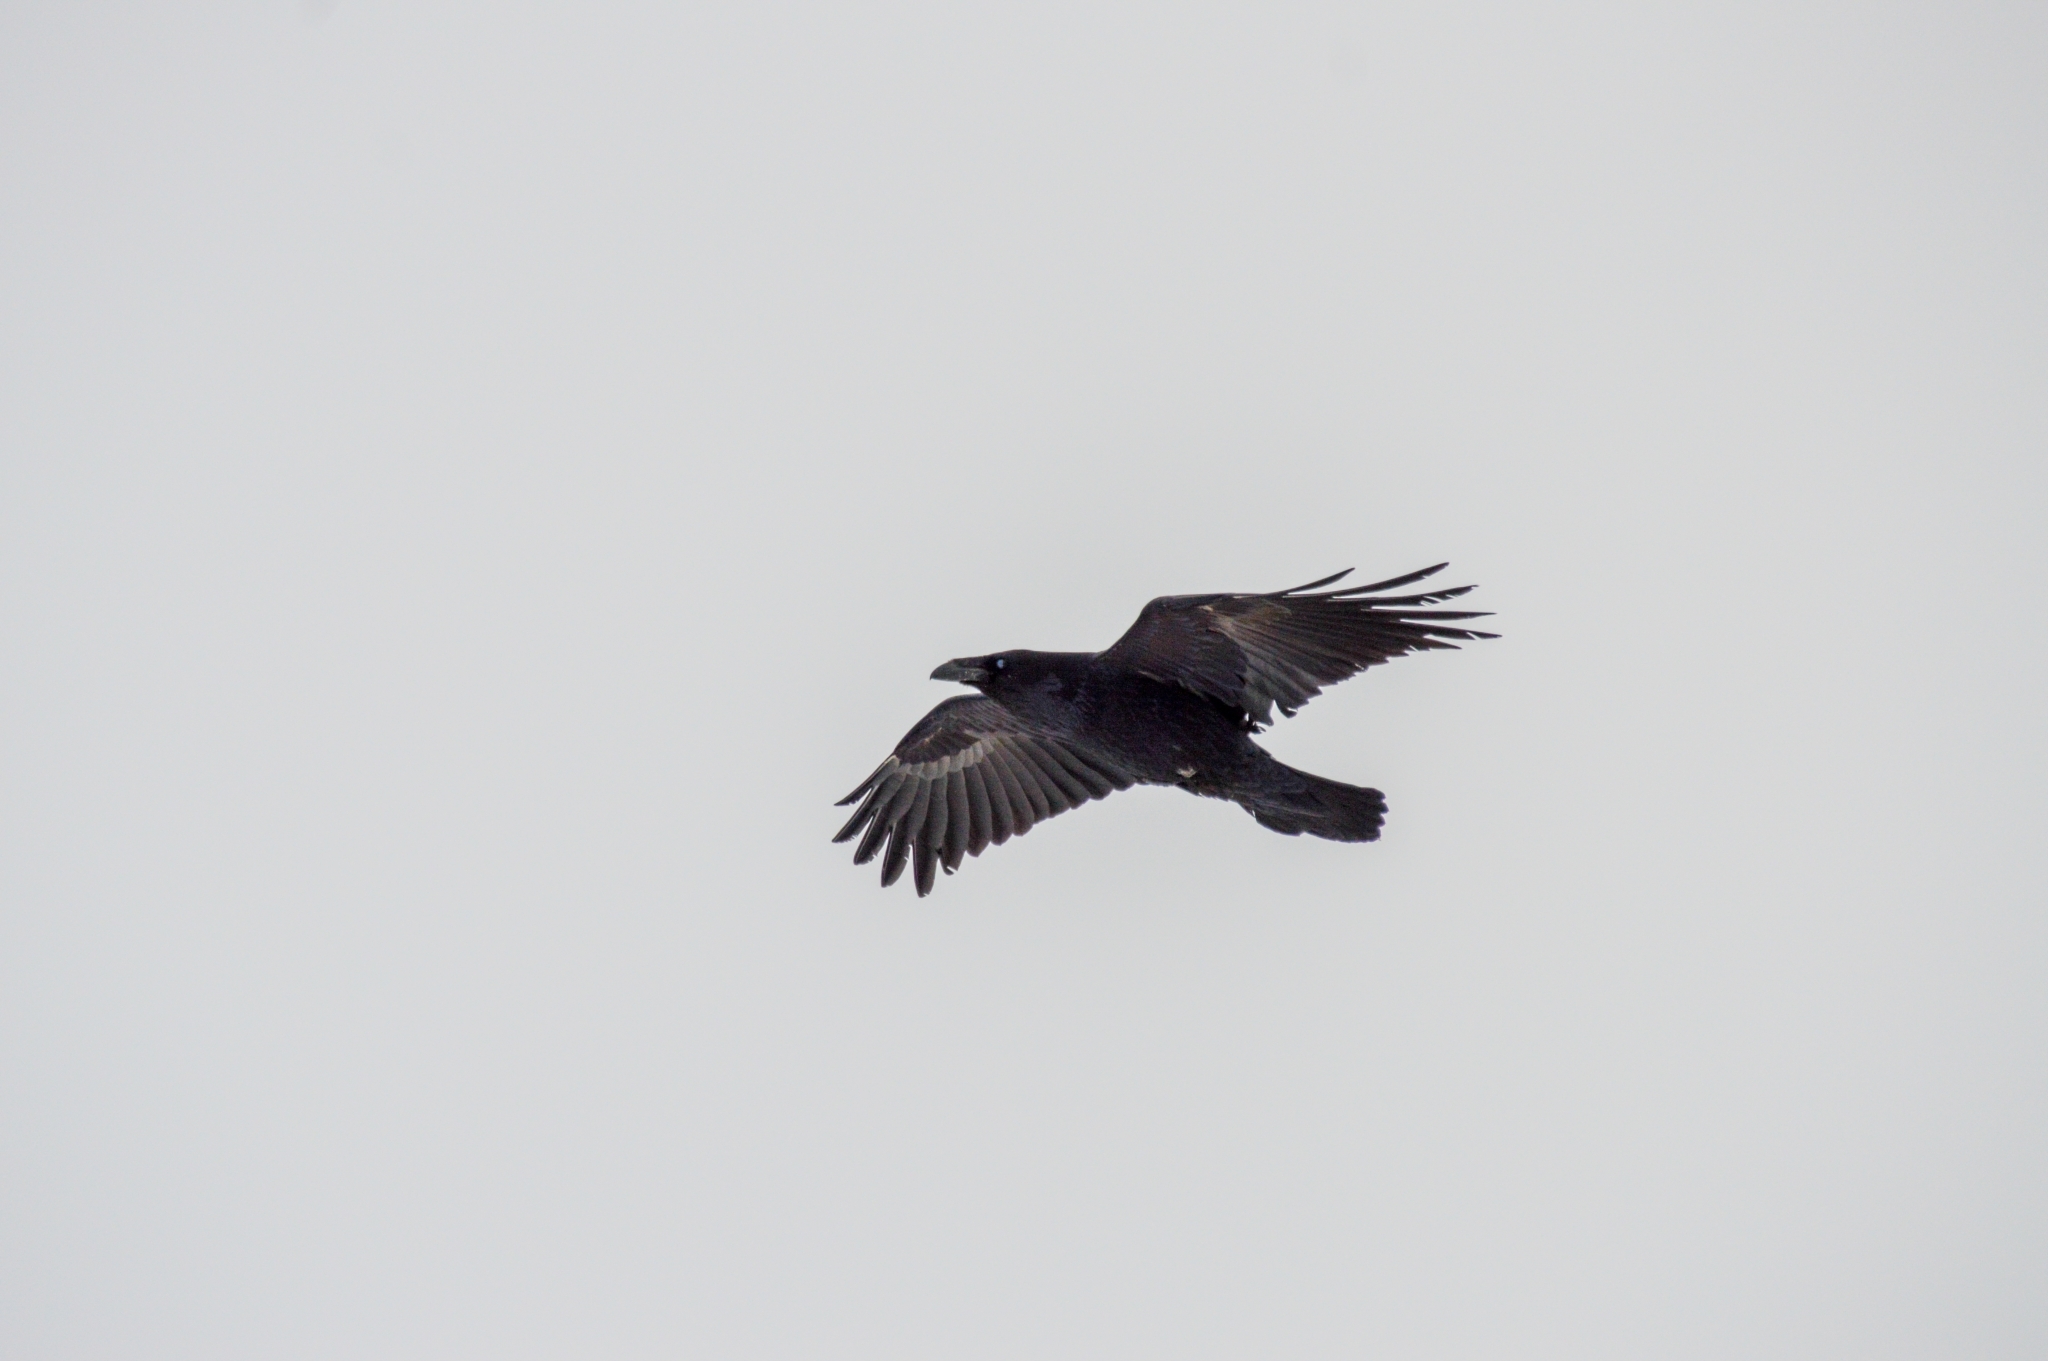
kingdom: Animalia
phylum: Chordata
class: Aves
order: Passeriformes
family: Corvidae
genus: Corvus
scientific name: Corvus corax
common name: Common raven
